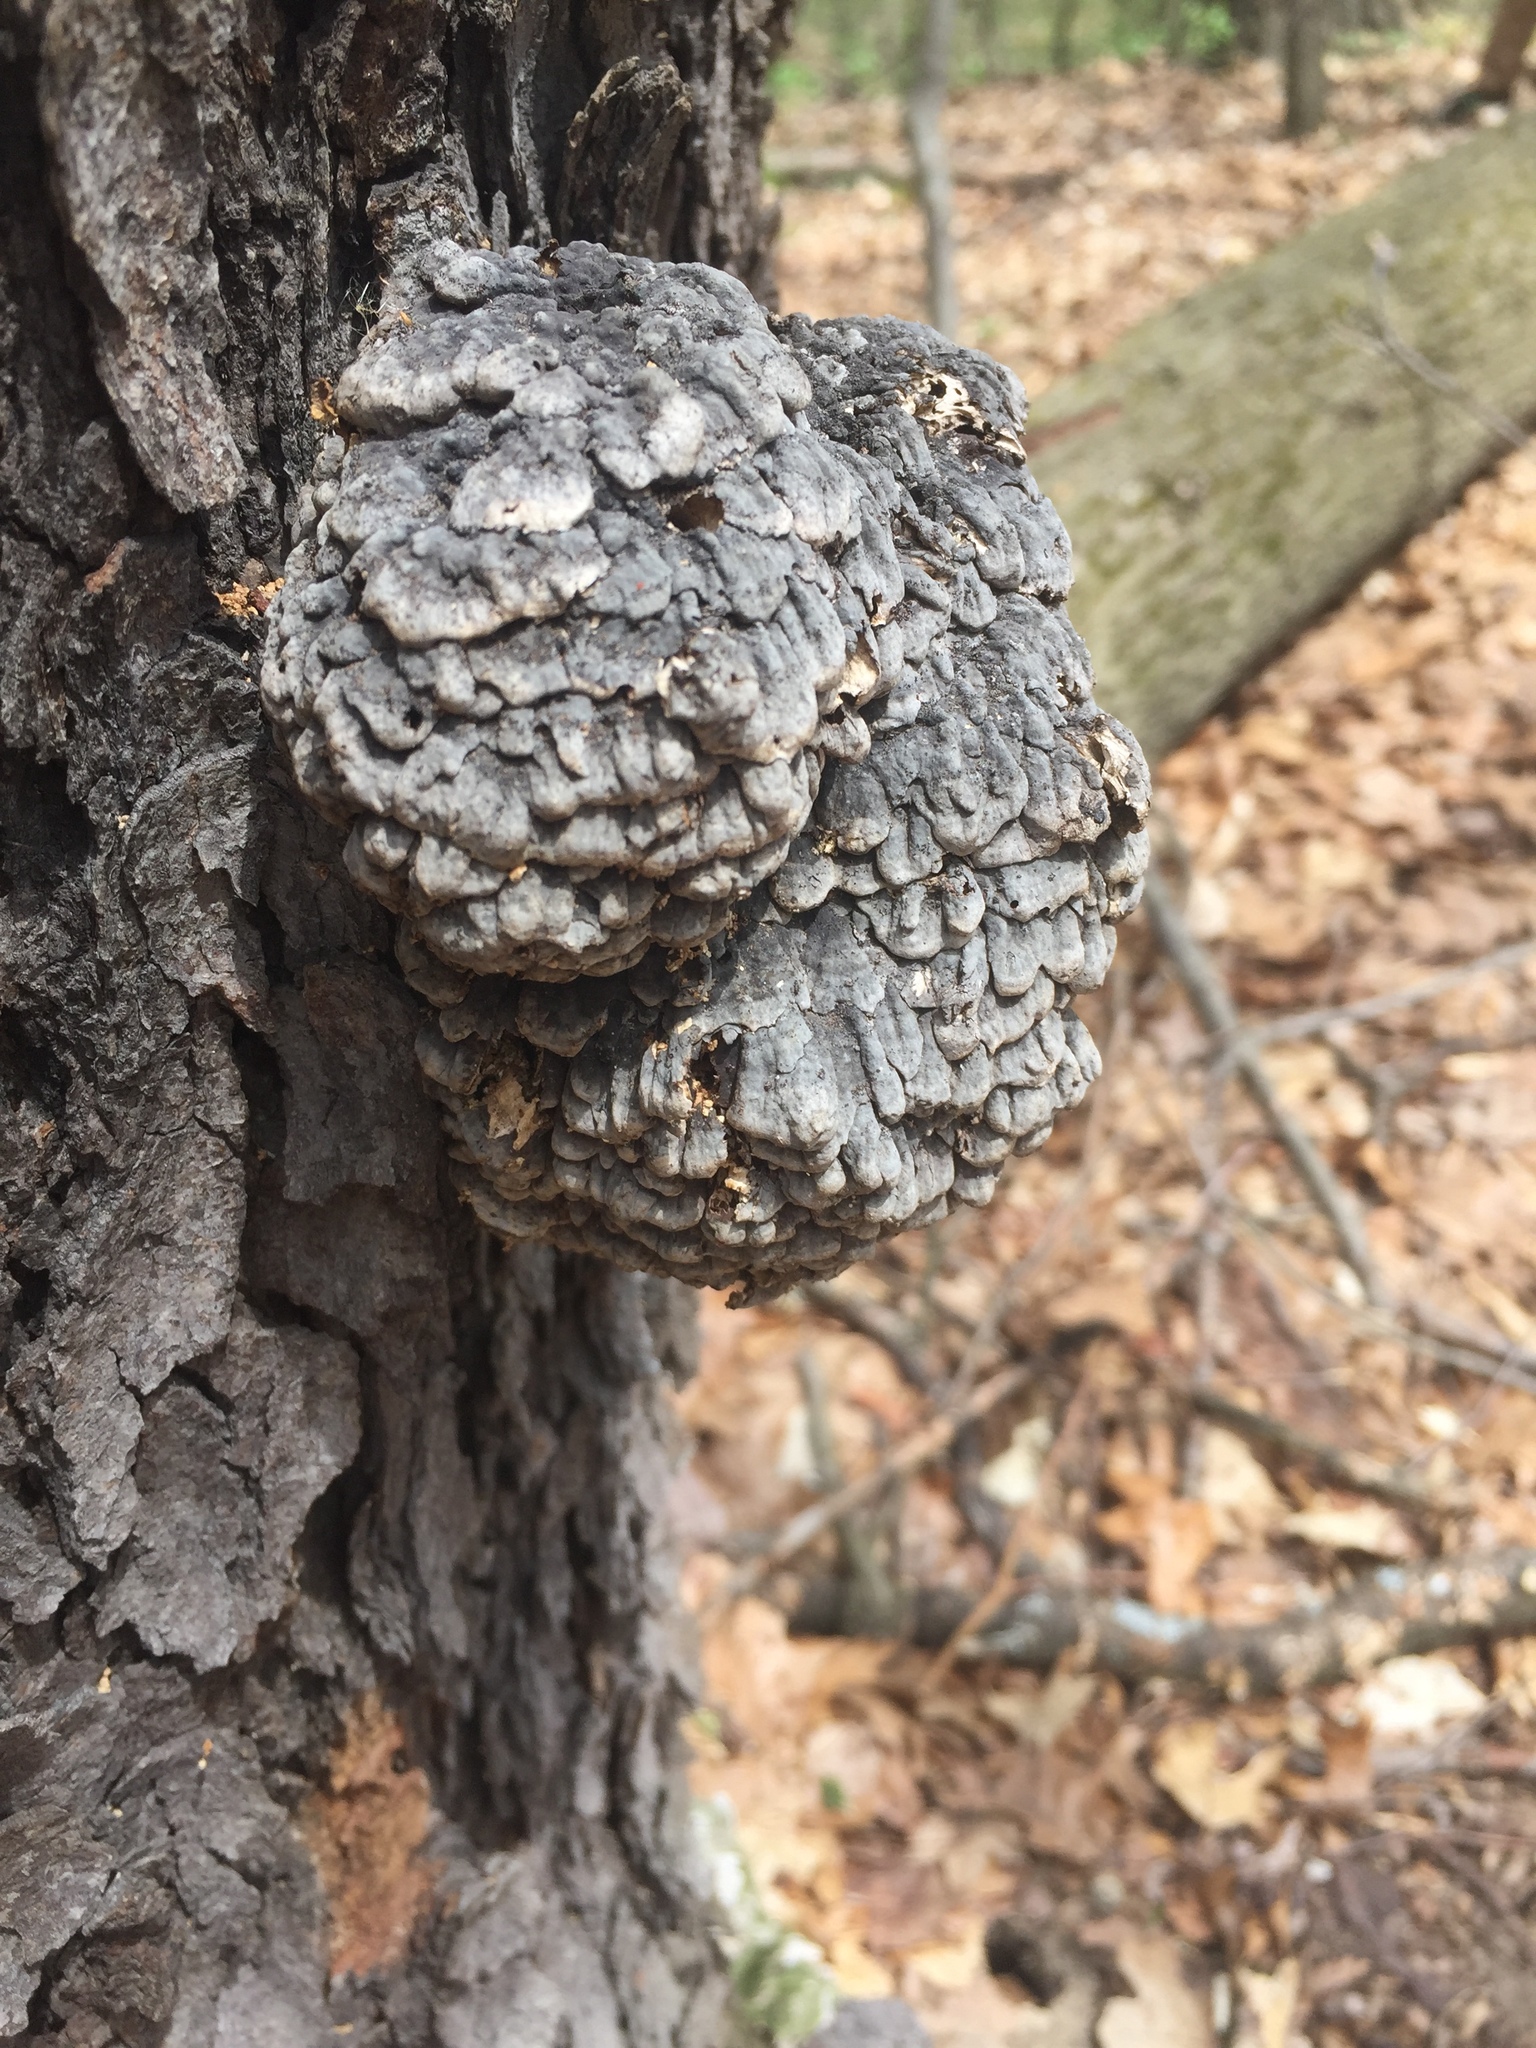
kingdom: Fungi
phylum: Basidiomycota
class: Agaricomycetes
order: Polyporales
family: Polyporaceae
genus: Globifomes
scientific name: Globifomes graveolens
